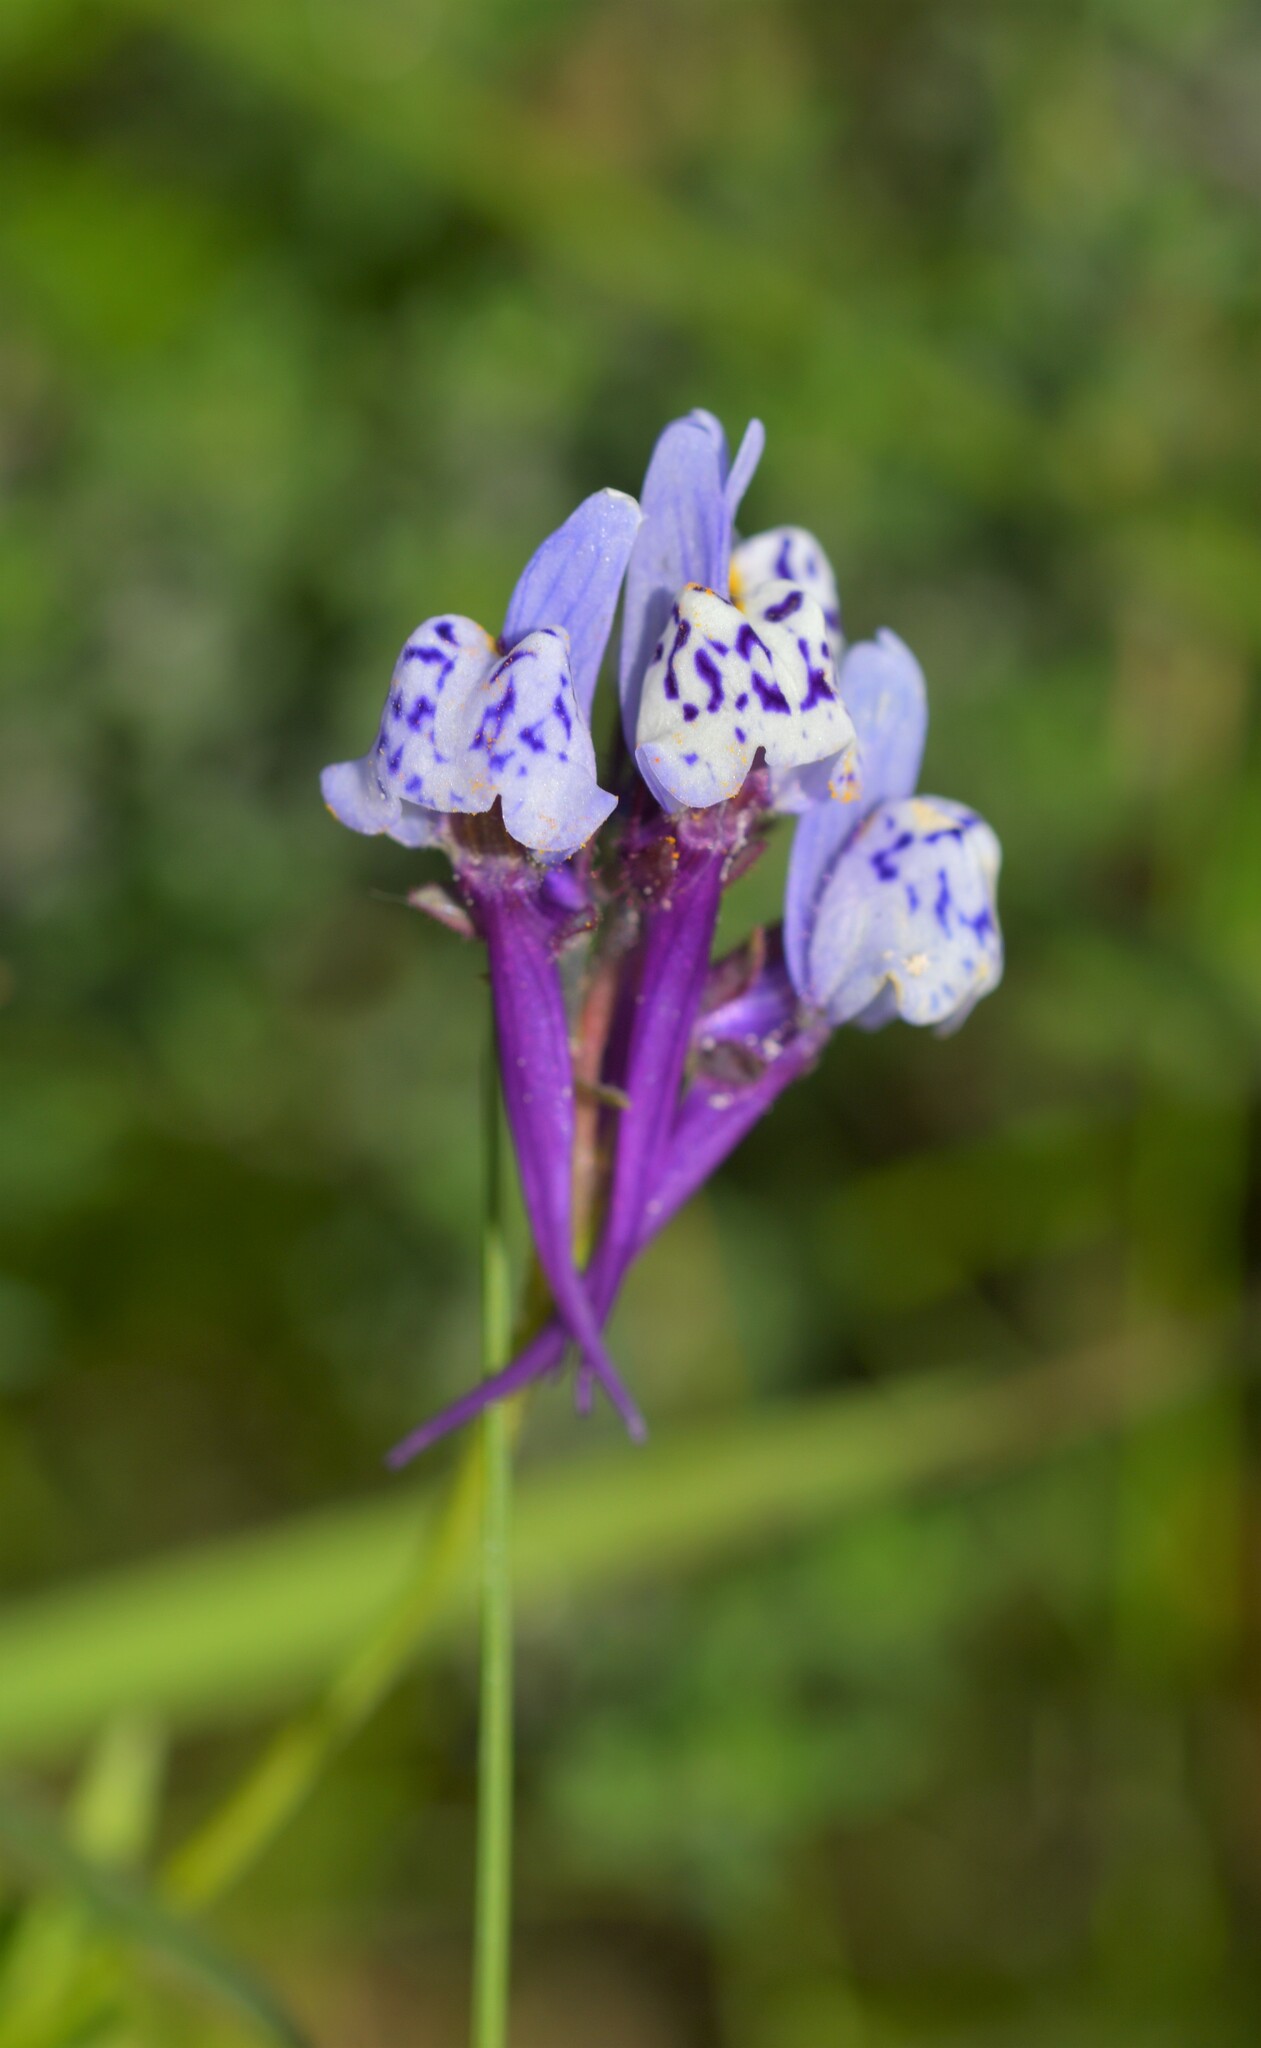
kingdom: Plantae
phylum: Tracheophyta
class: Magnoliopsida
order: Lamiales
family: Plantaginaceae
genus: Linaria
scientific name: Linaria amethystea
